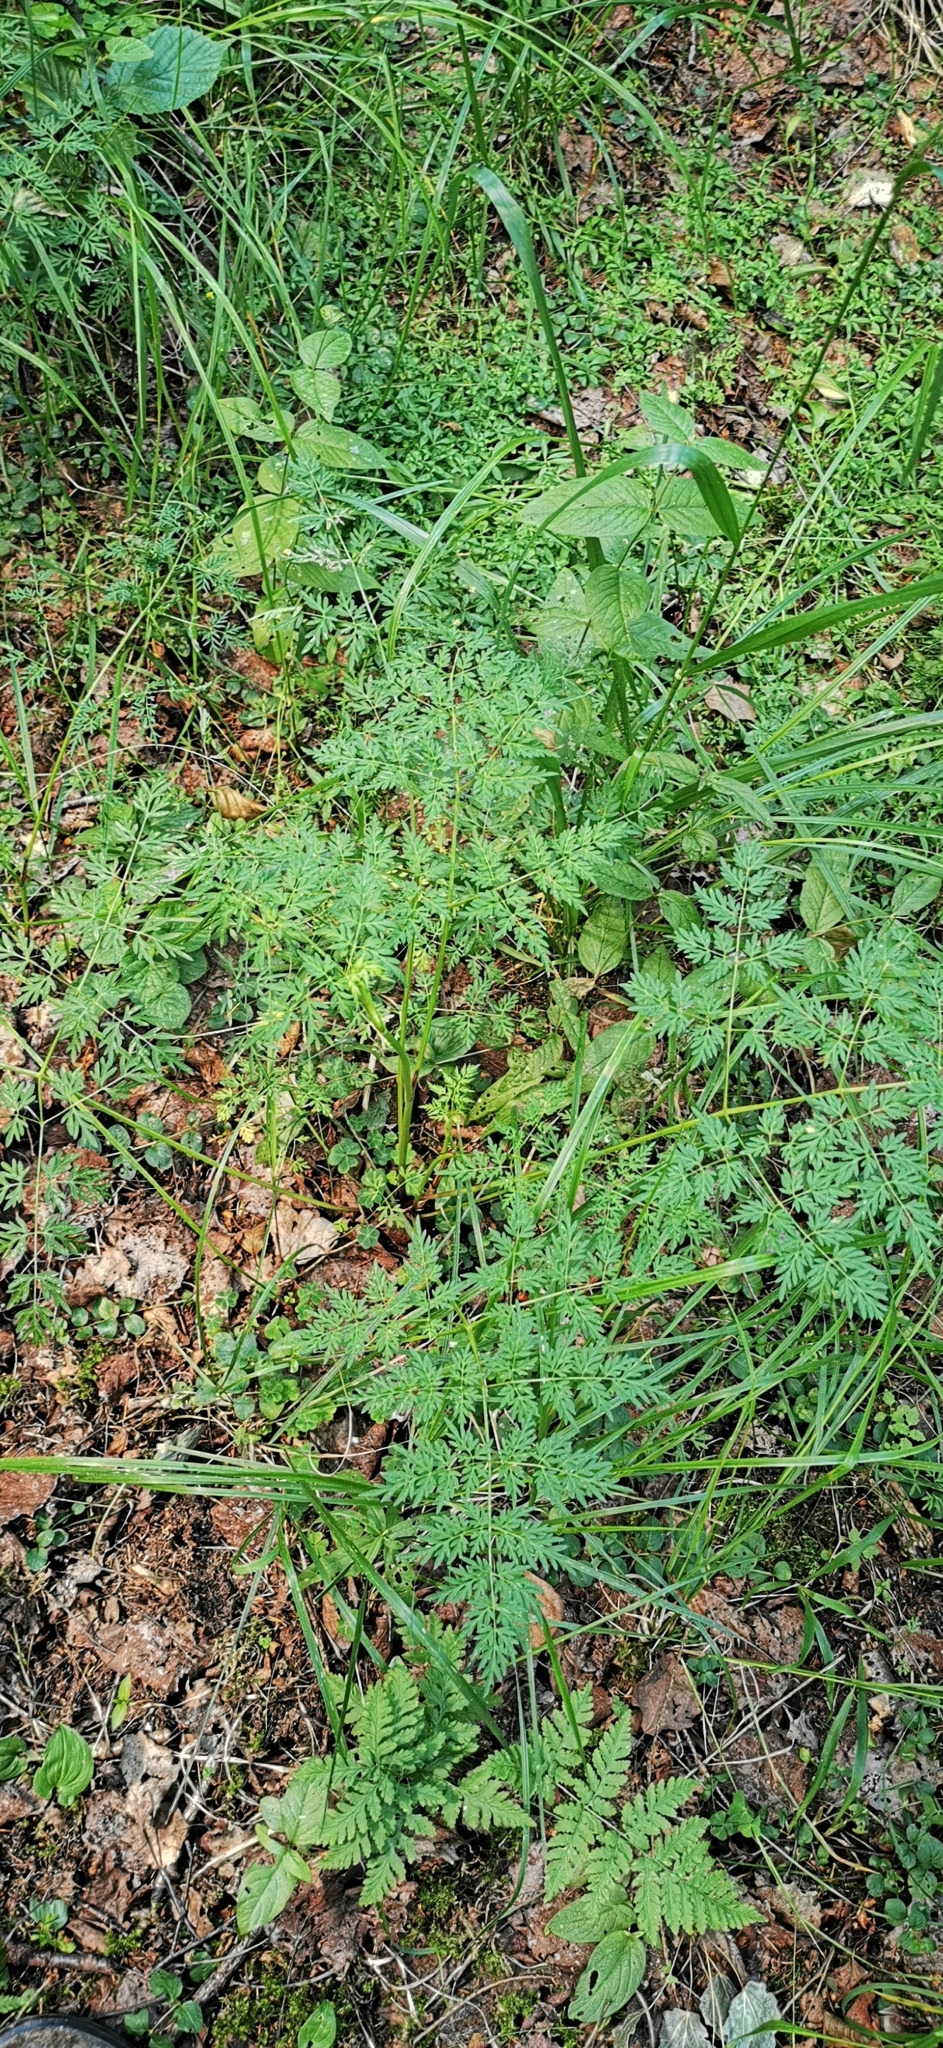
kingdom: Plantae
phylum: Tracheophyta
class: Magnoliopsida
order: Apiales
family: Apiaceae
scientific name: Apiaceae
